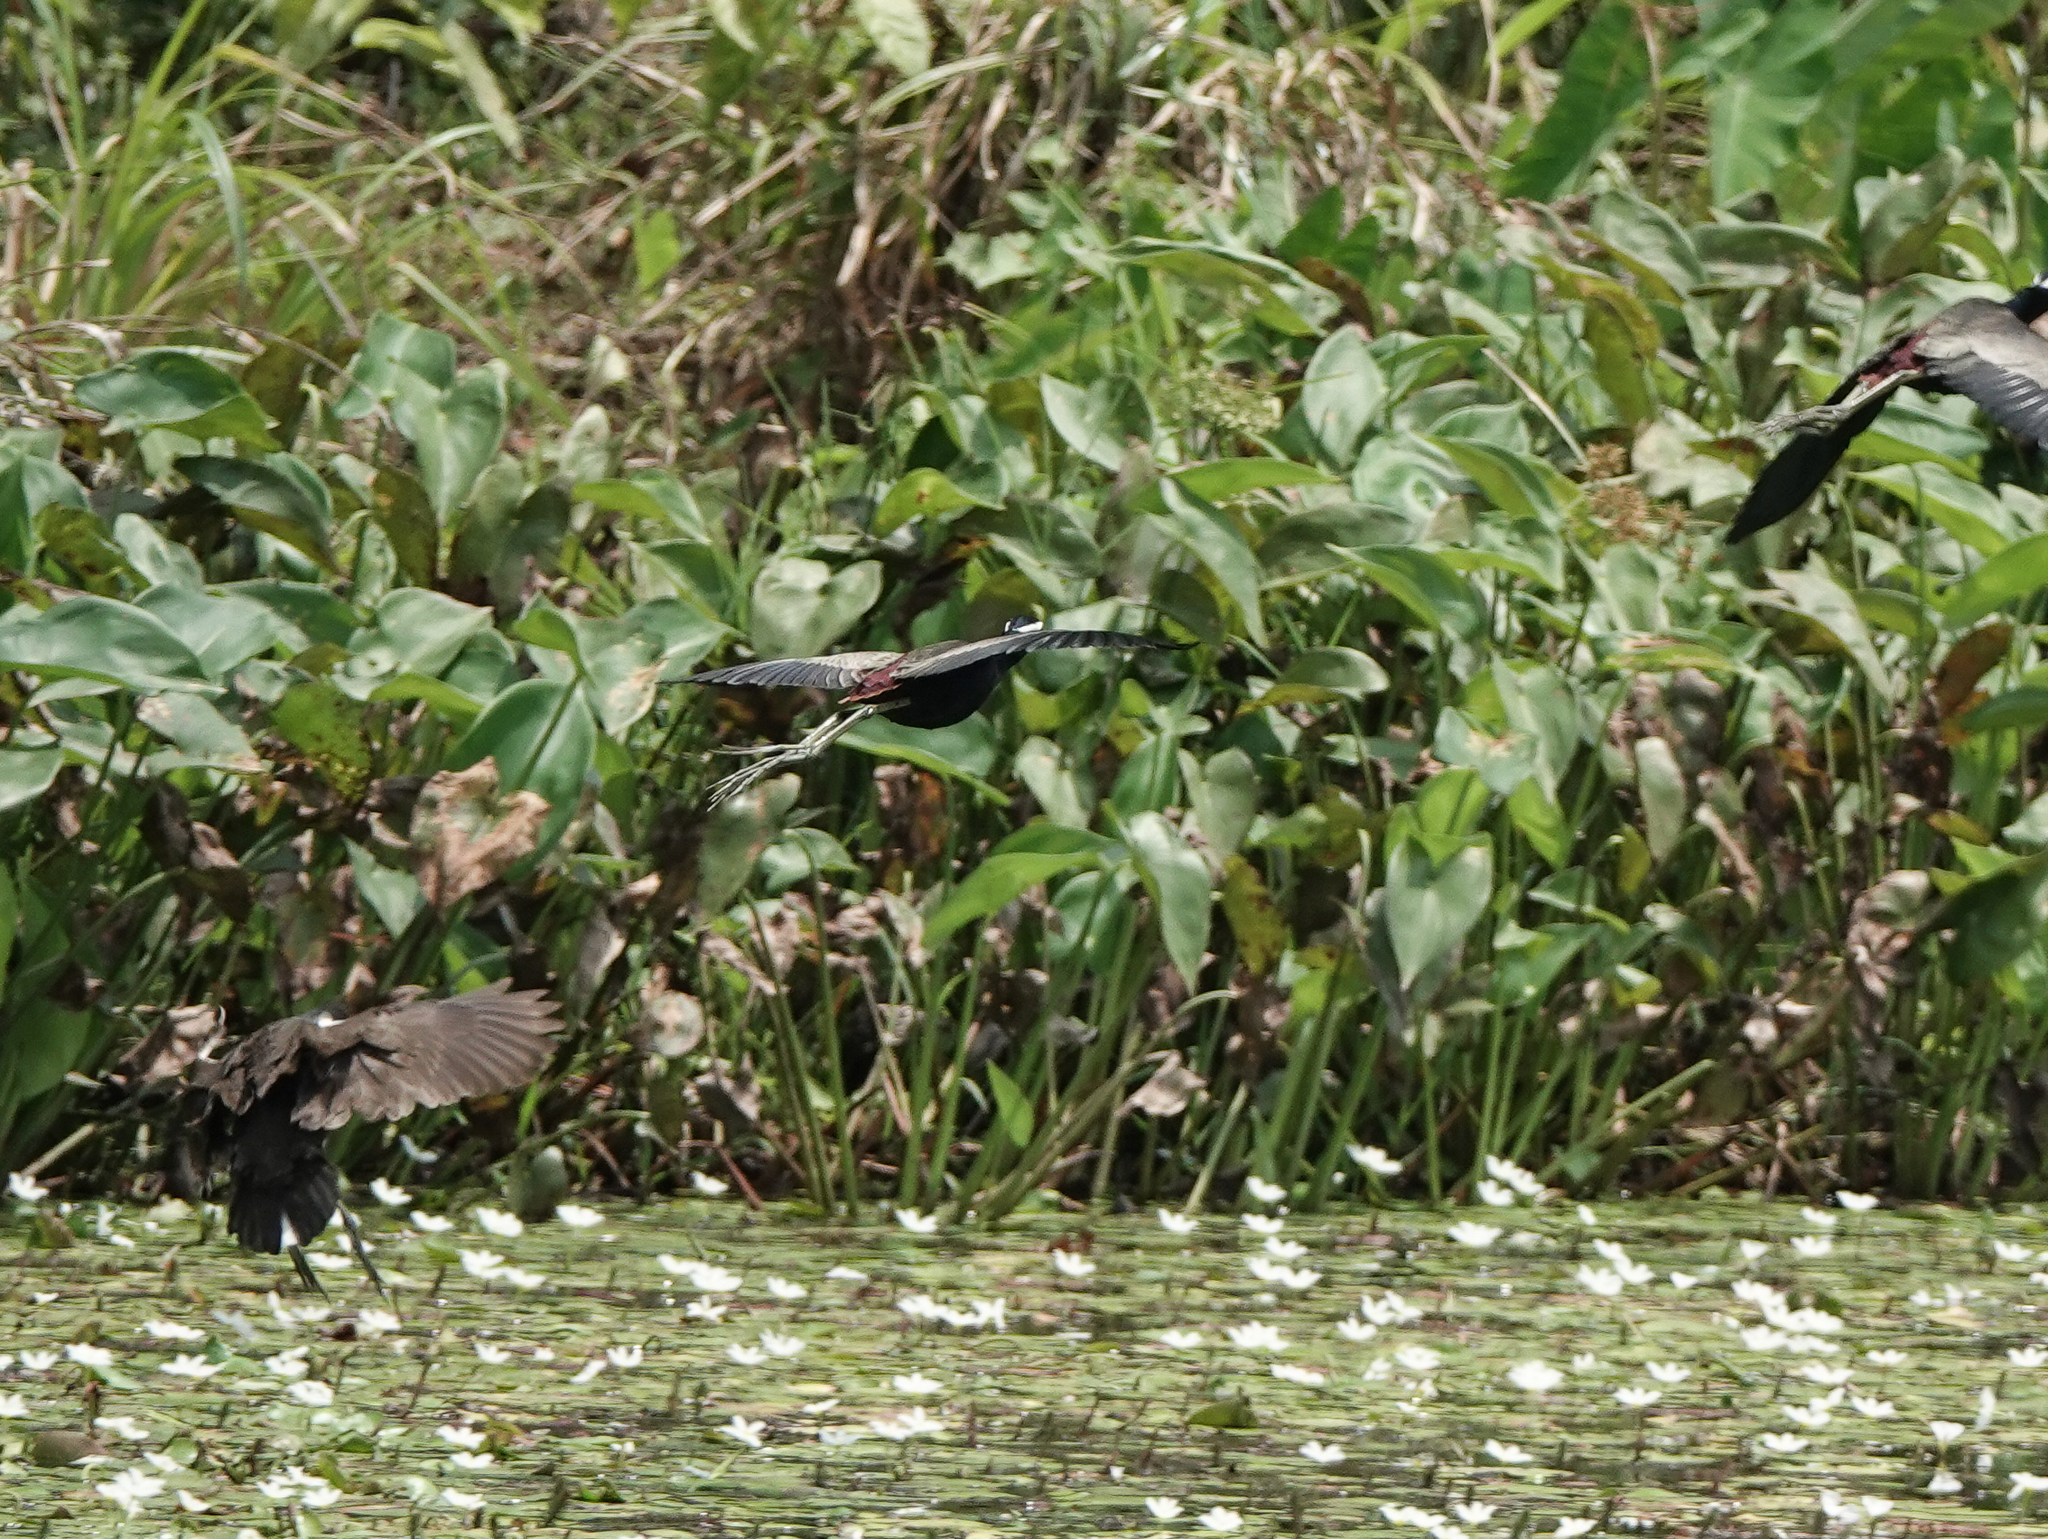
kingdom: Animalia
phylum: Chordata
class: Aves
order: Charadriiformes
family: Jacanidae
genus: Metopidius
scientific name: Metopidius indicus
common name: Bronze-winged jacana
